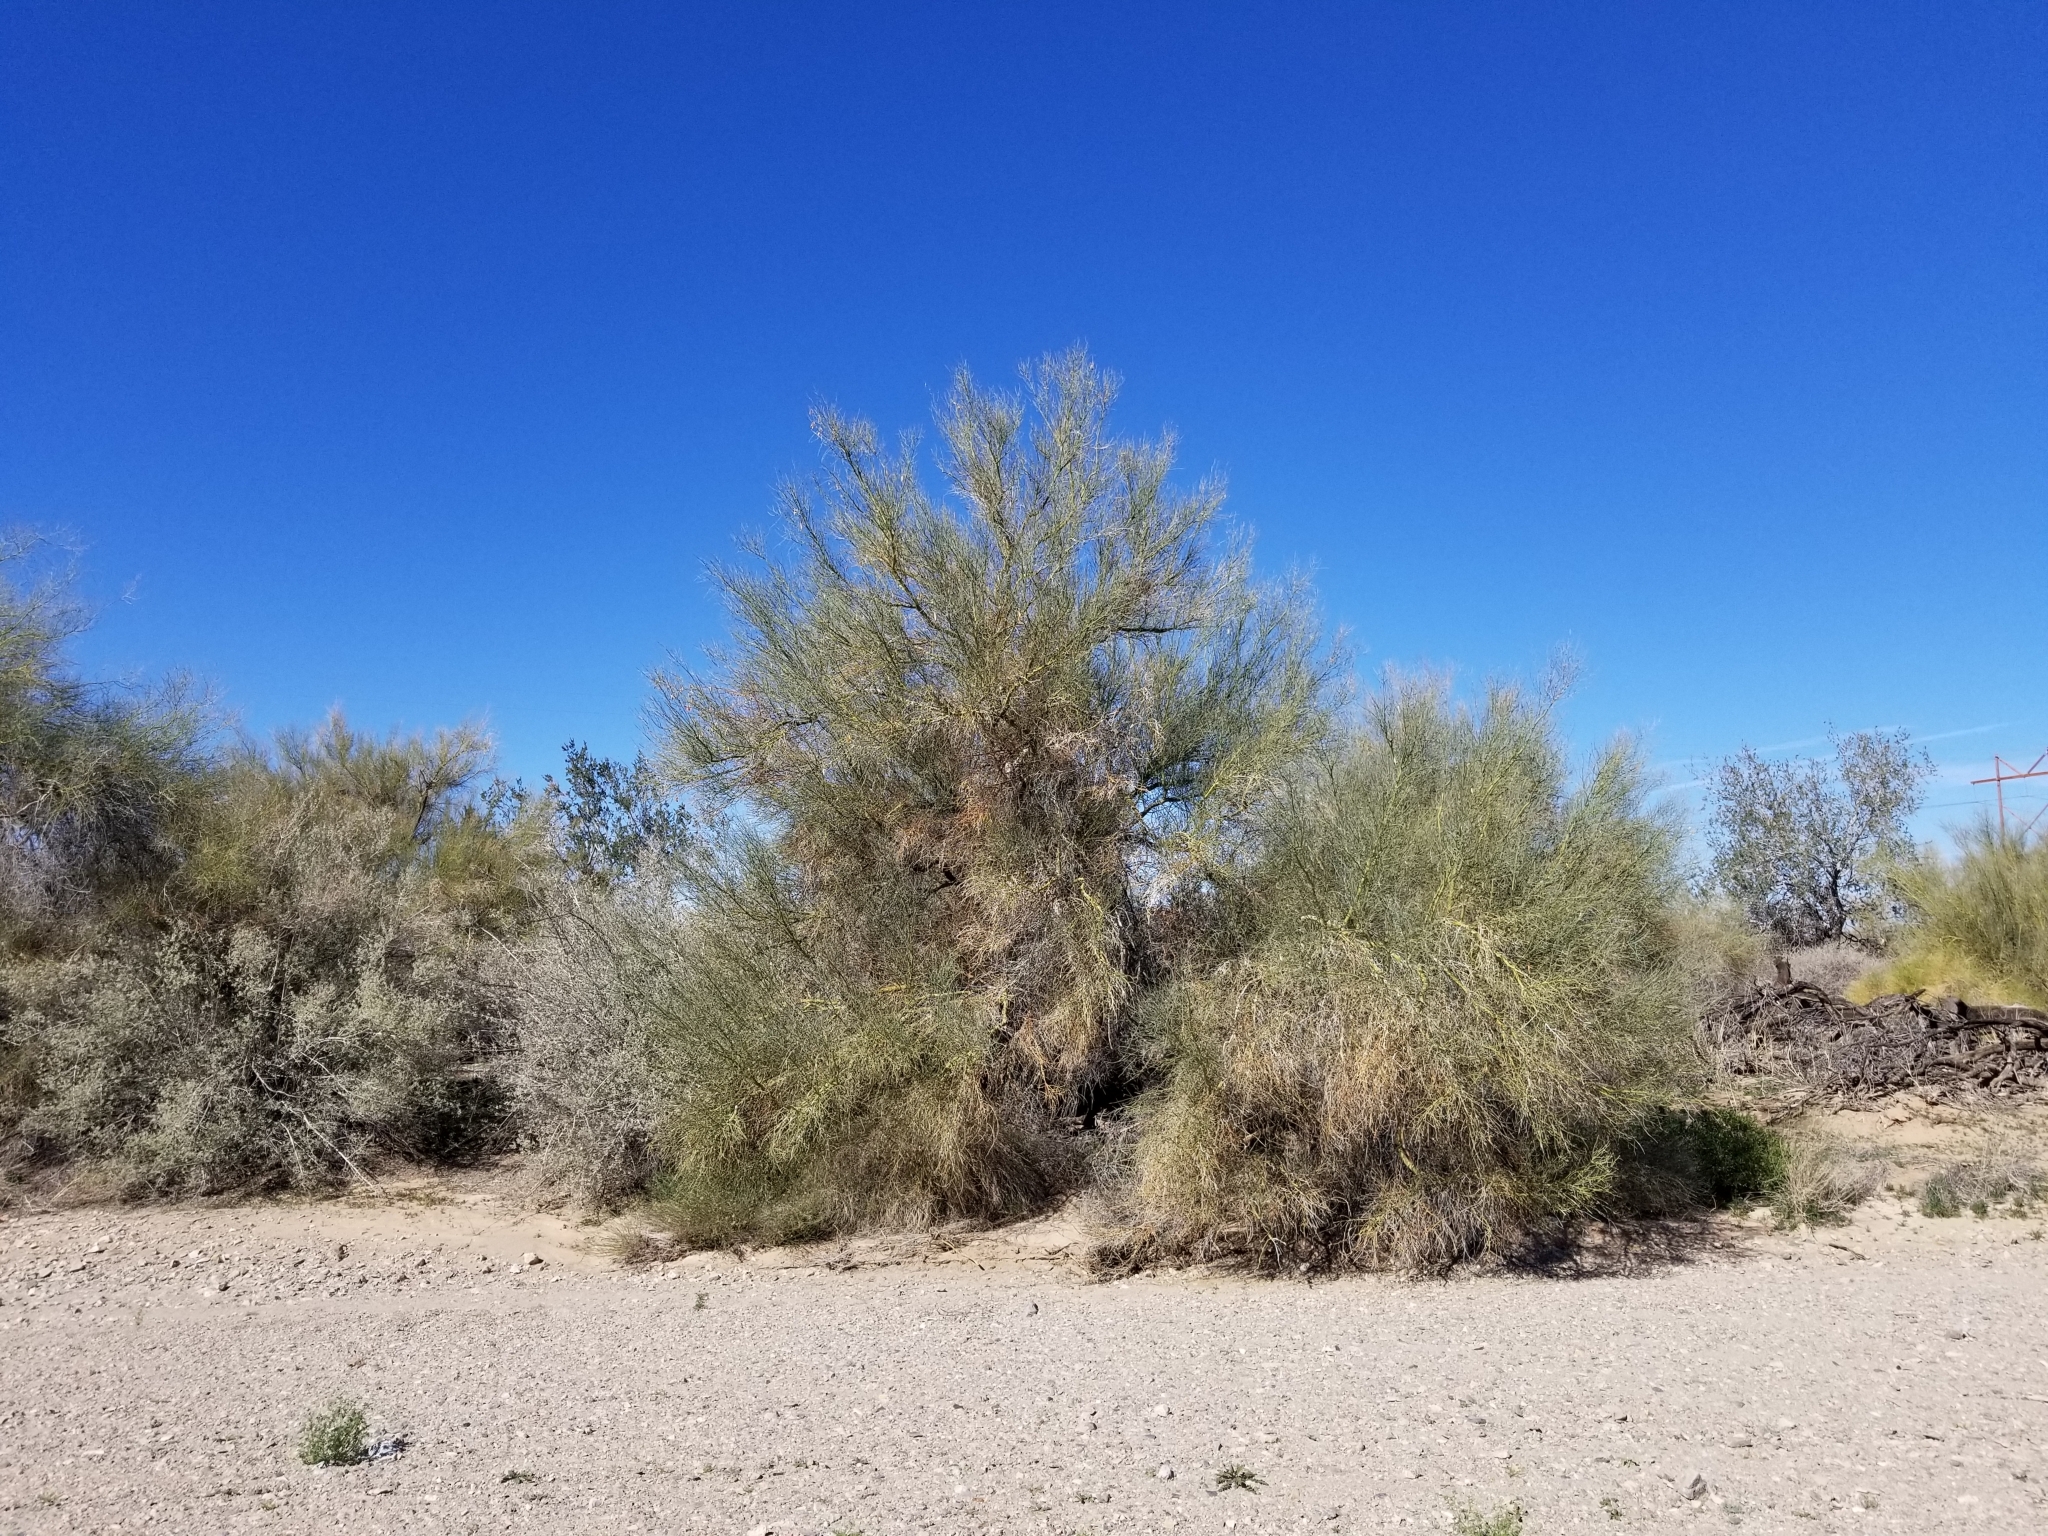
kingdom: Plantae
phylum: Tracheophyta
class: Magnoliopsida
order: Fabales
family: Fabaceae
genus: Parkinsonia
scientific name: Parkinsonia florida
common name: Blue paloverde
